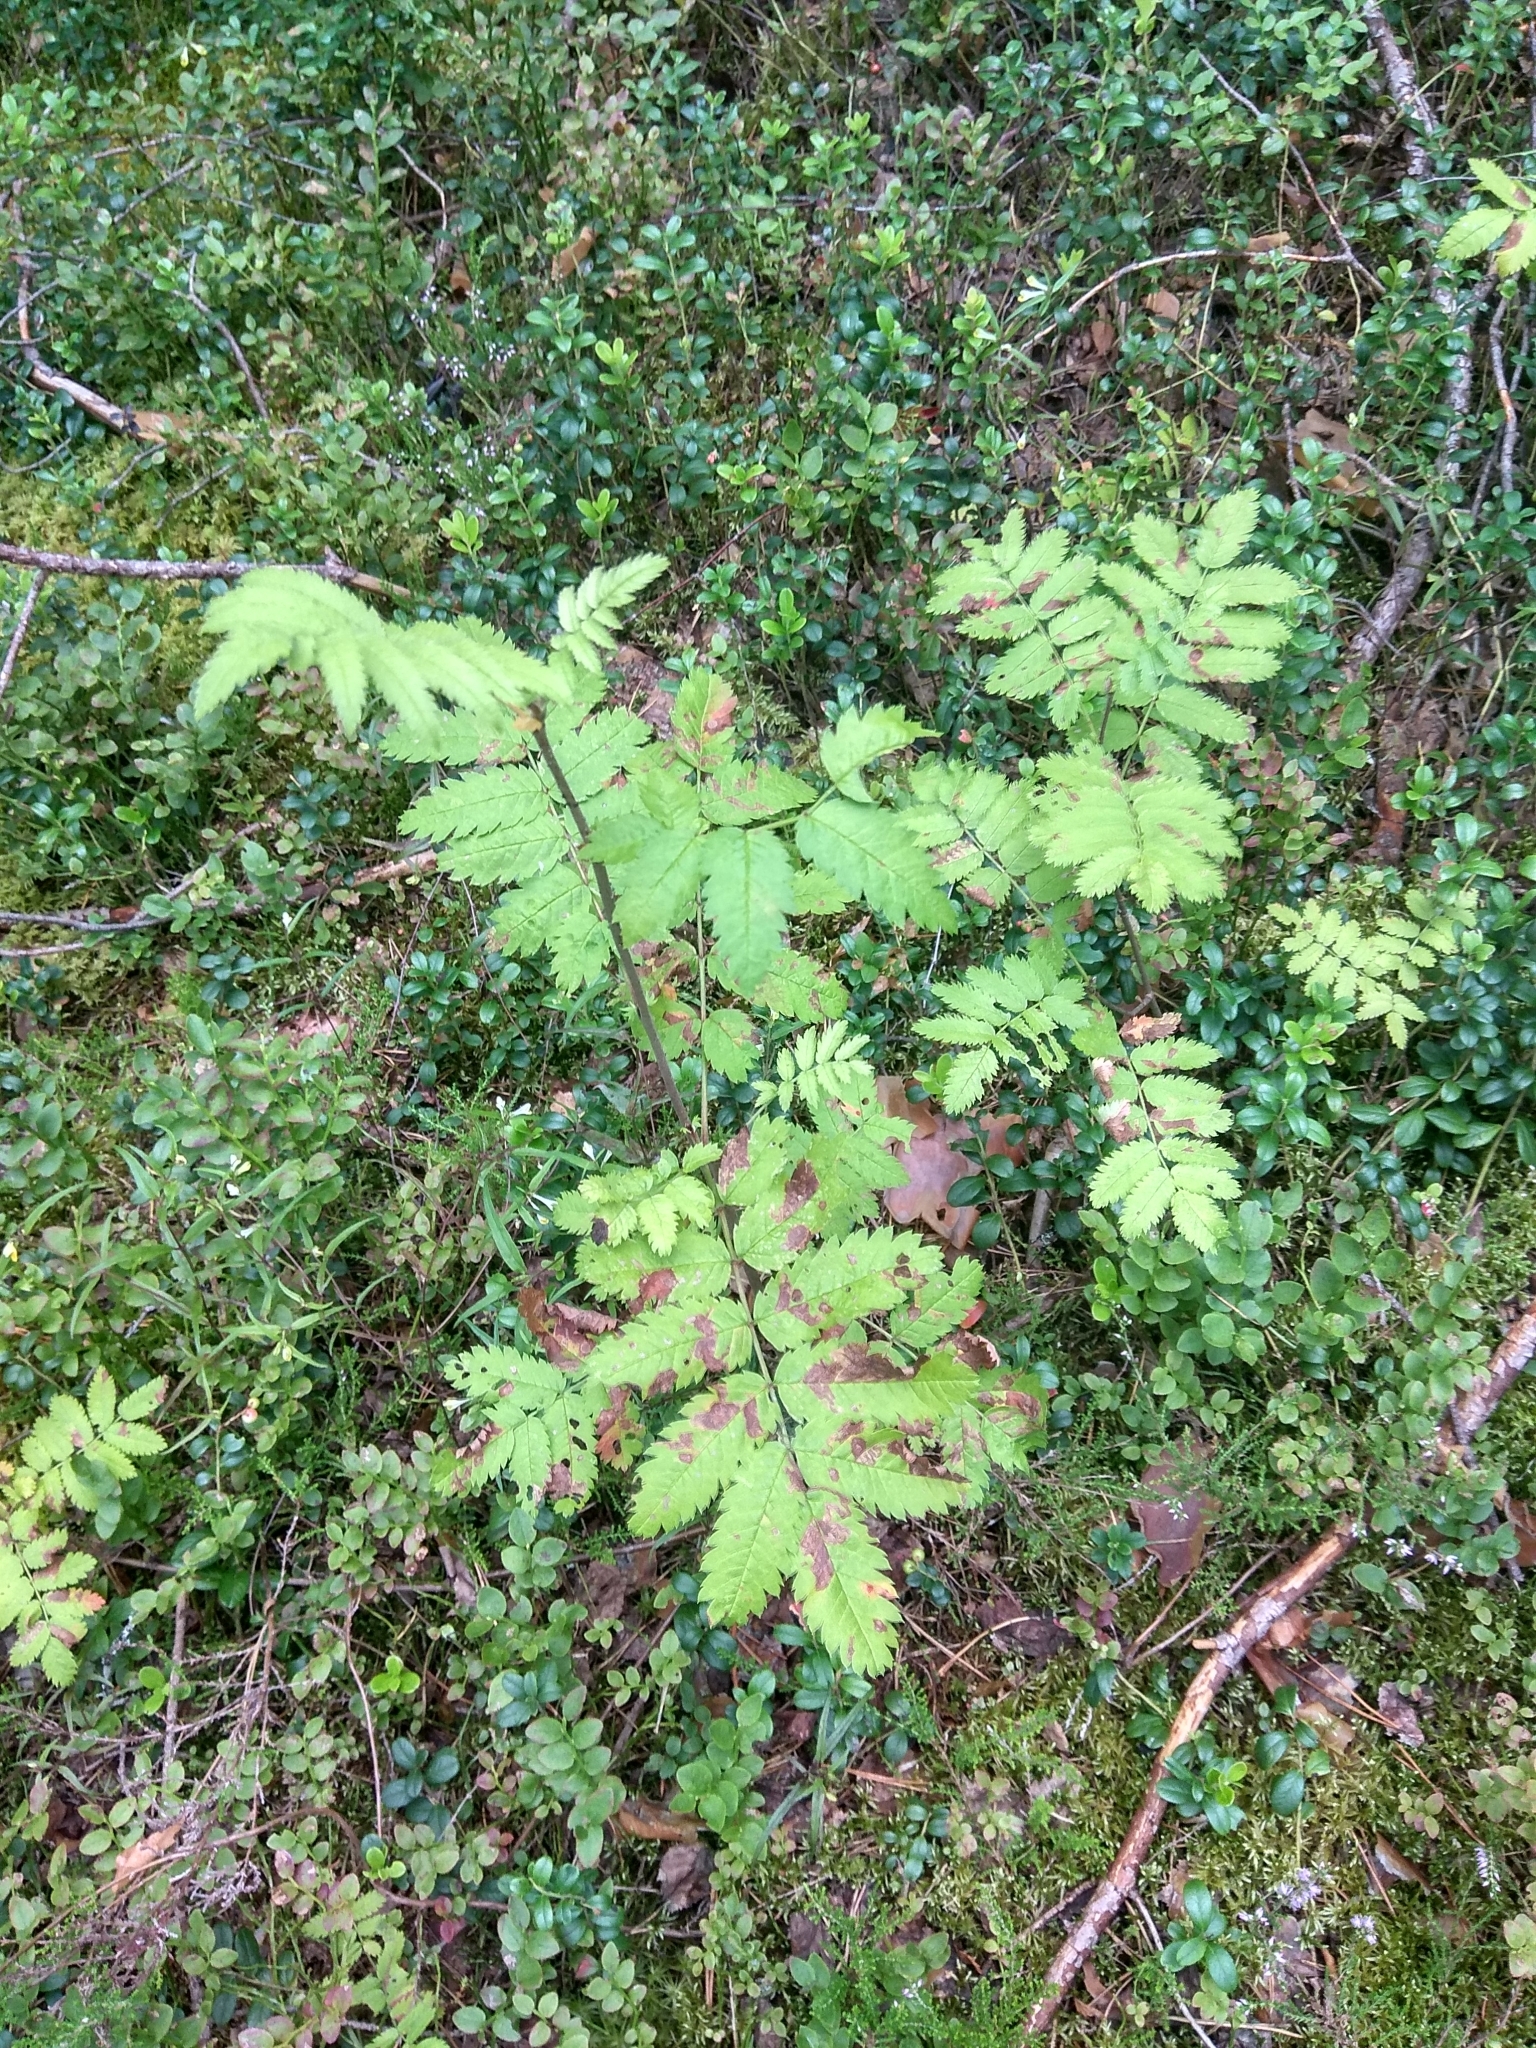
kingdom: Plantae
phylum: Tracheophyta
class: Magnoliopsida
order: Rosales
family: Rosaceae
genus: Sorbus
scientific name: Sorbus aucuparia
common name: Rowan
